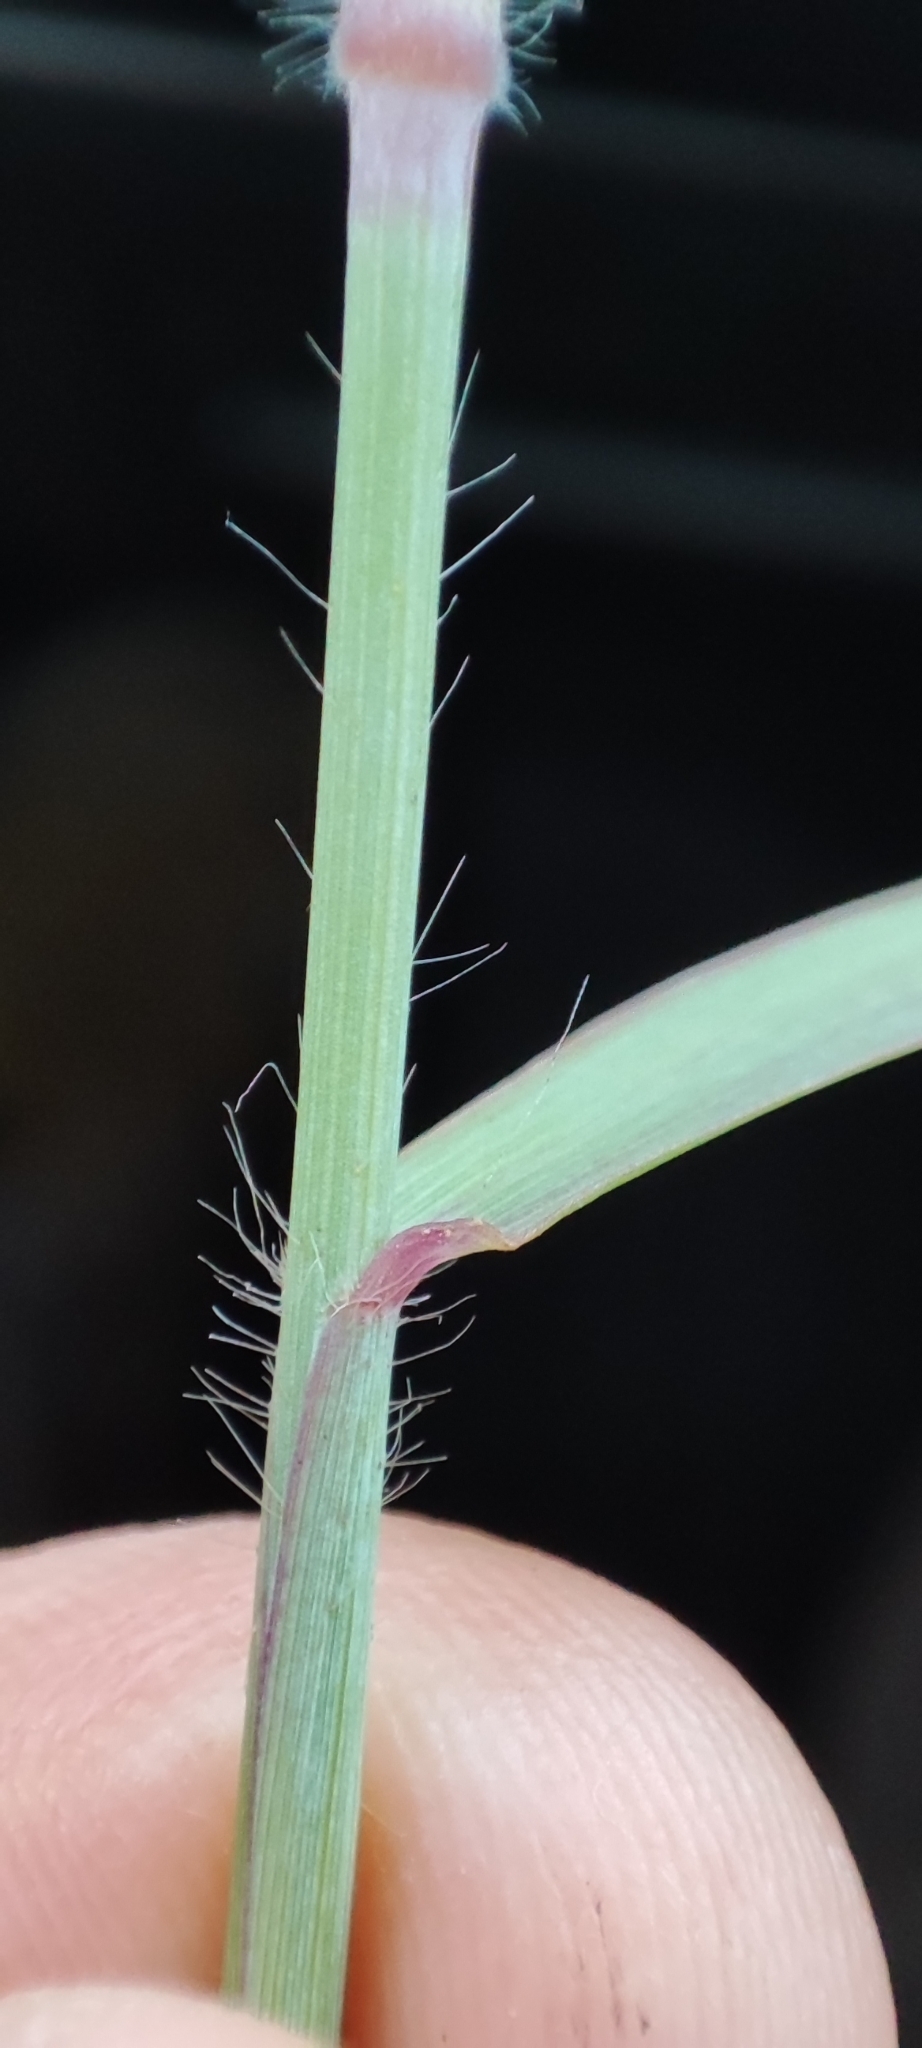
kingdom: Plantae
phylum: Tracheophyta
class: Liliopsida
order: Poales
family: Poaceae
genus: Melinis
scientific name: Melinis repens
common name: Rose natal grass
